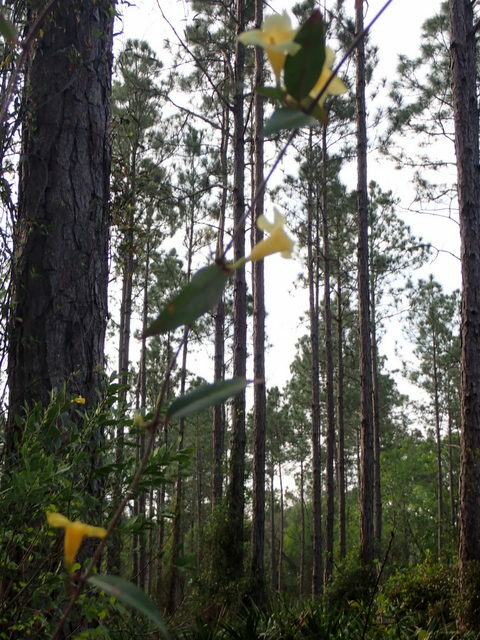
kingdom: Plantae
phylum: Tracheophyta
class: Magnoliopsida
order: Gentianales
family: Gelsemiaceae
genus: Gelsemium
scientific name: Gelsemium sempervirens
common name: Carolina-jasmine
